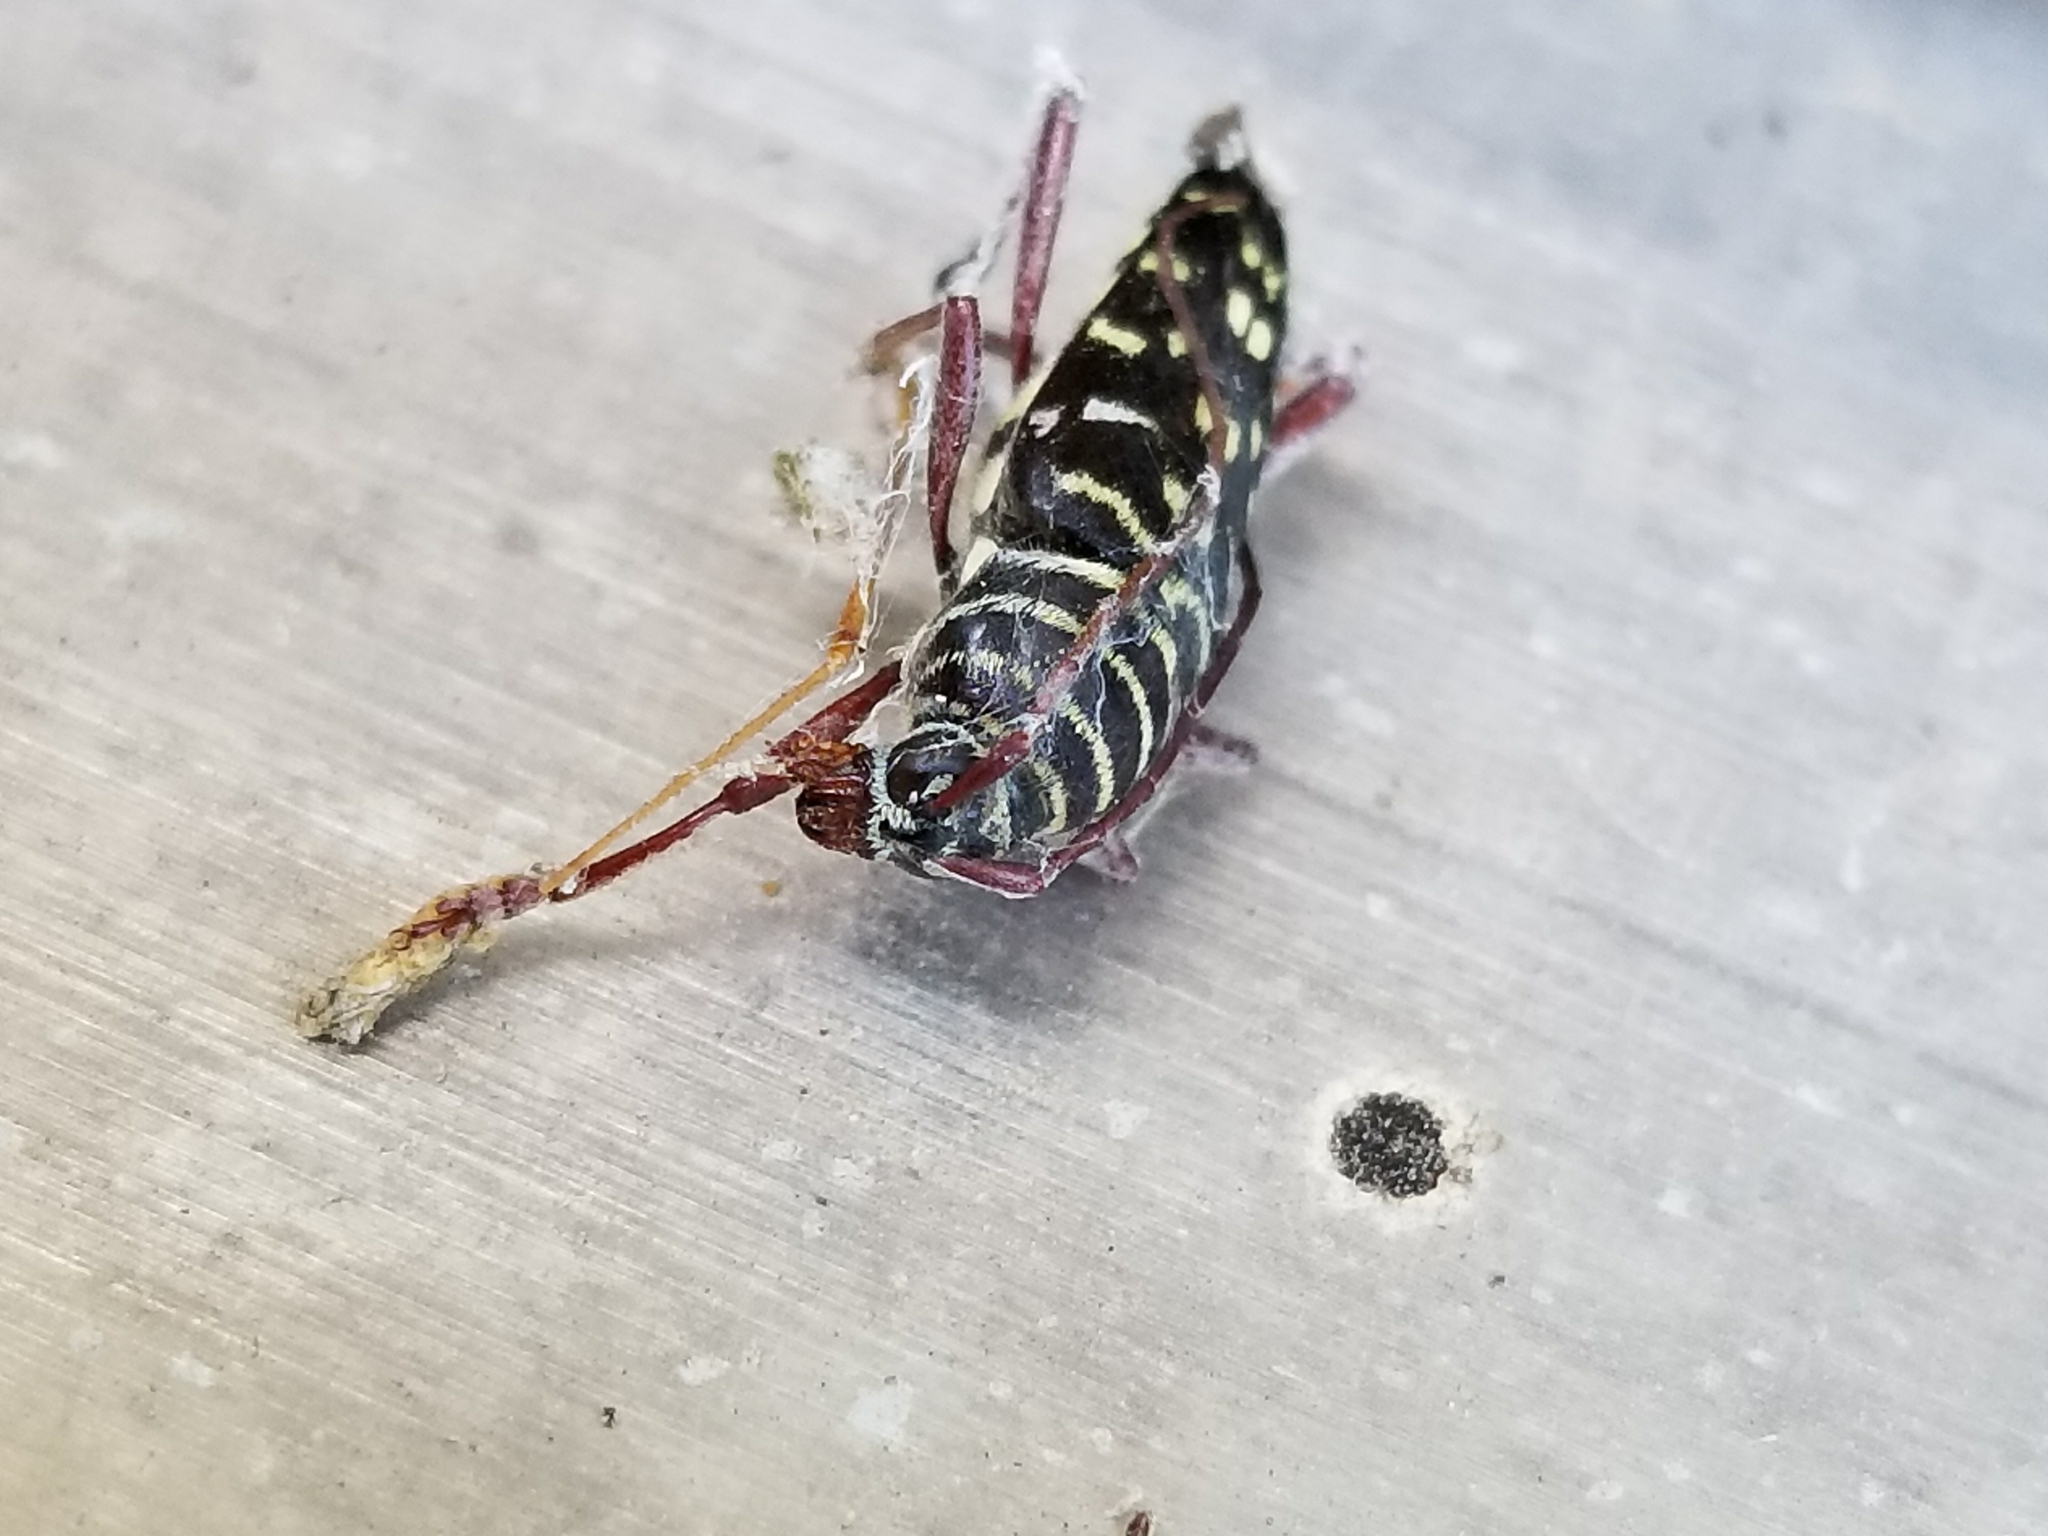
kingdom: Animalia
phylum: Arthropoda
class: Insecta
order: Coleoptera
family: Cerambycidae
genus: Placosternus
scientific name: Placosternus difficilis
